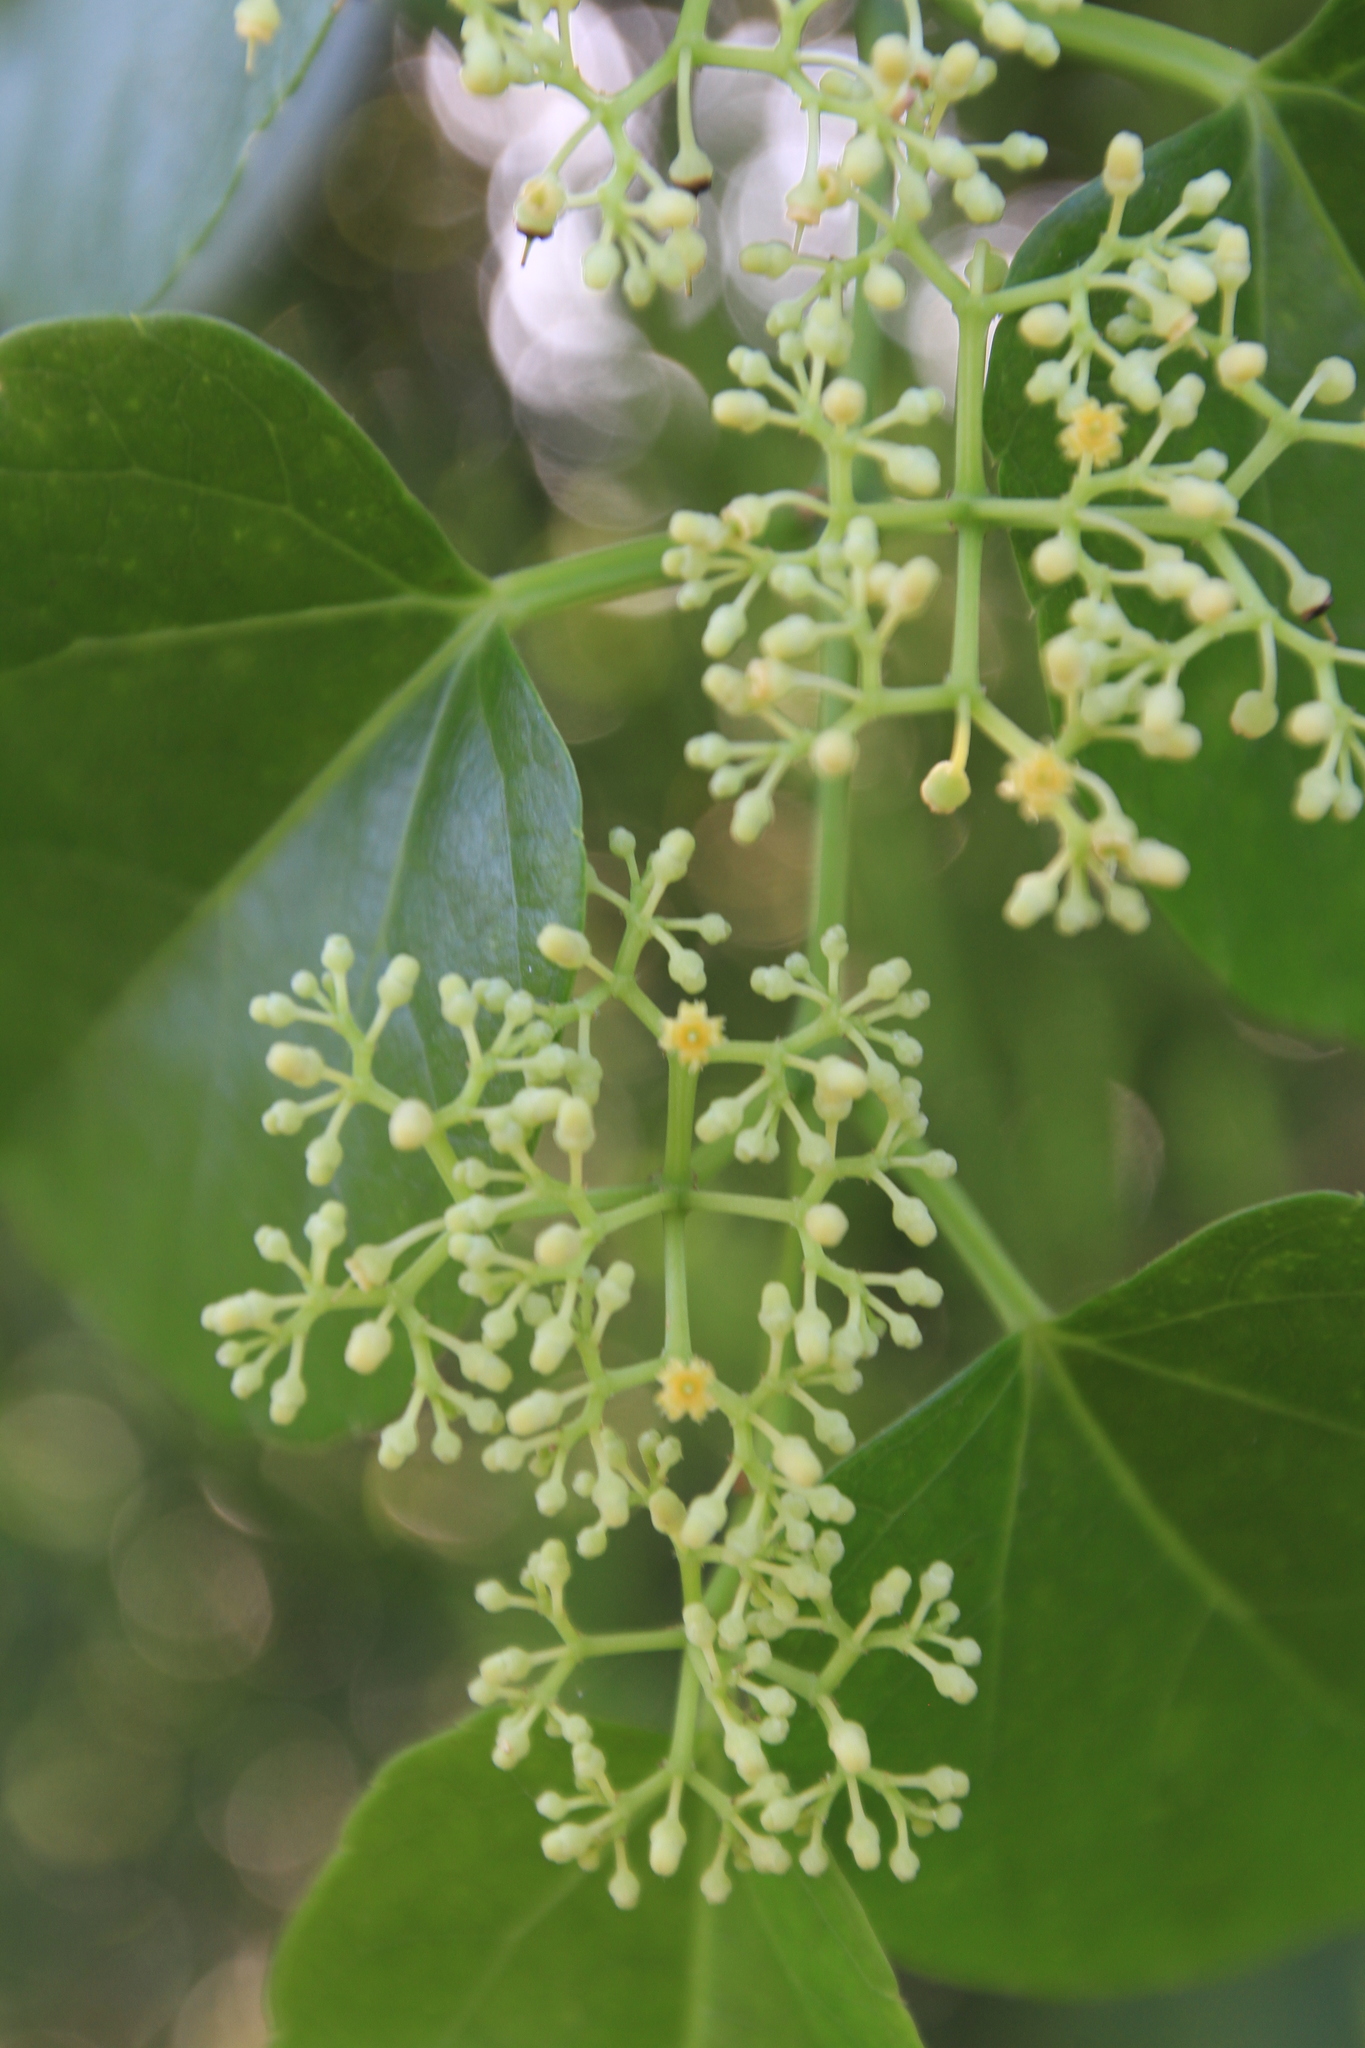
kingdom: Plantae
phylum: Tracheophyta
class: Magnoliopsida
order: Vitales
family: Vitaceae
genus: Cissus
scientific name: Cissus verticillata
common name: Princess vine
